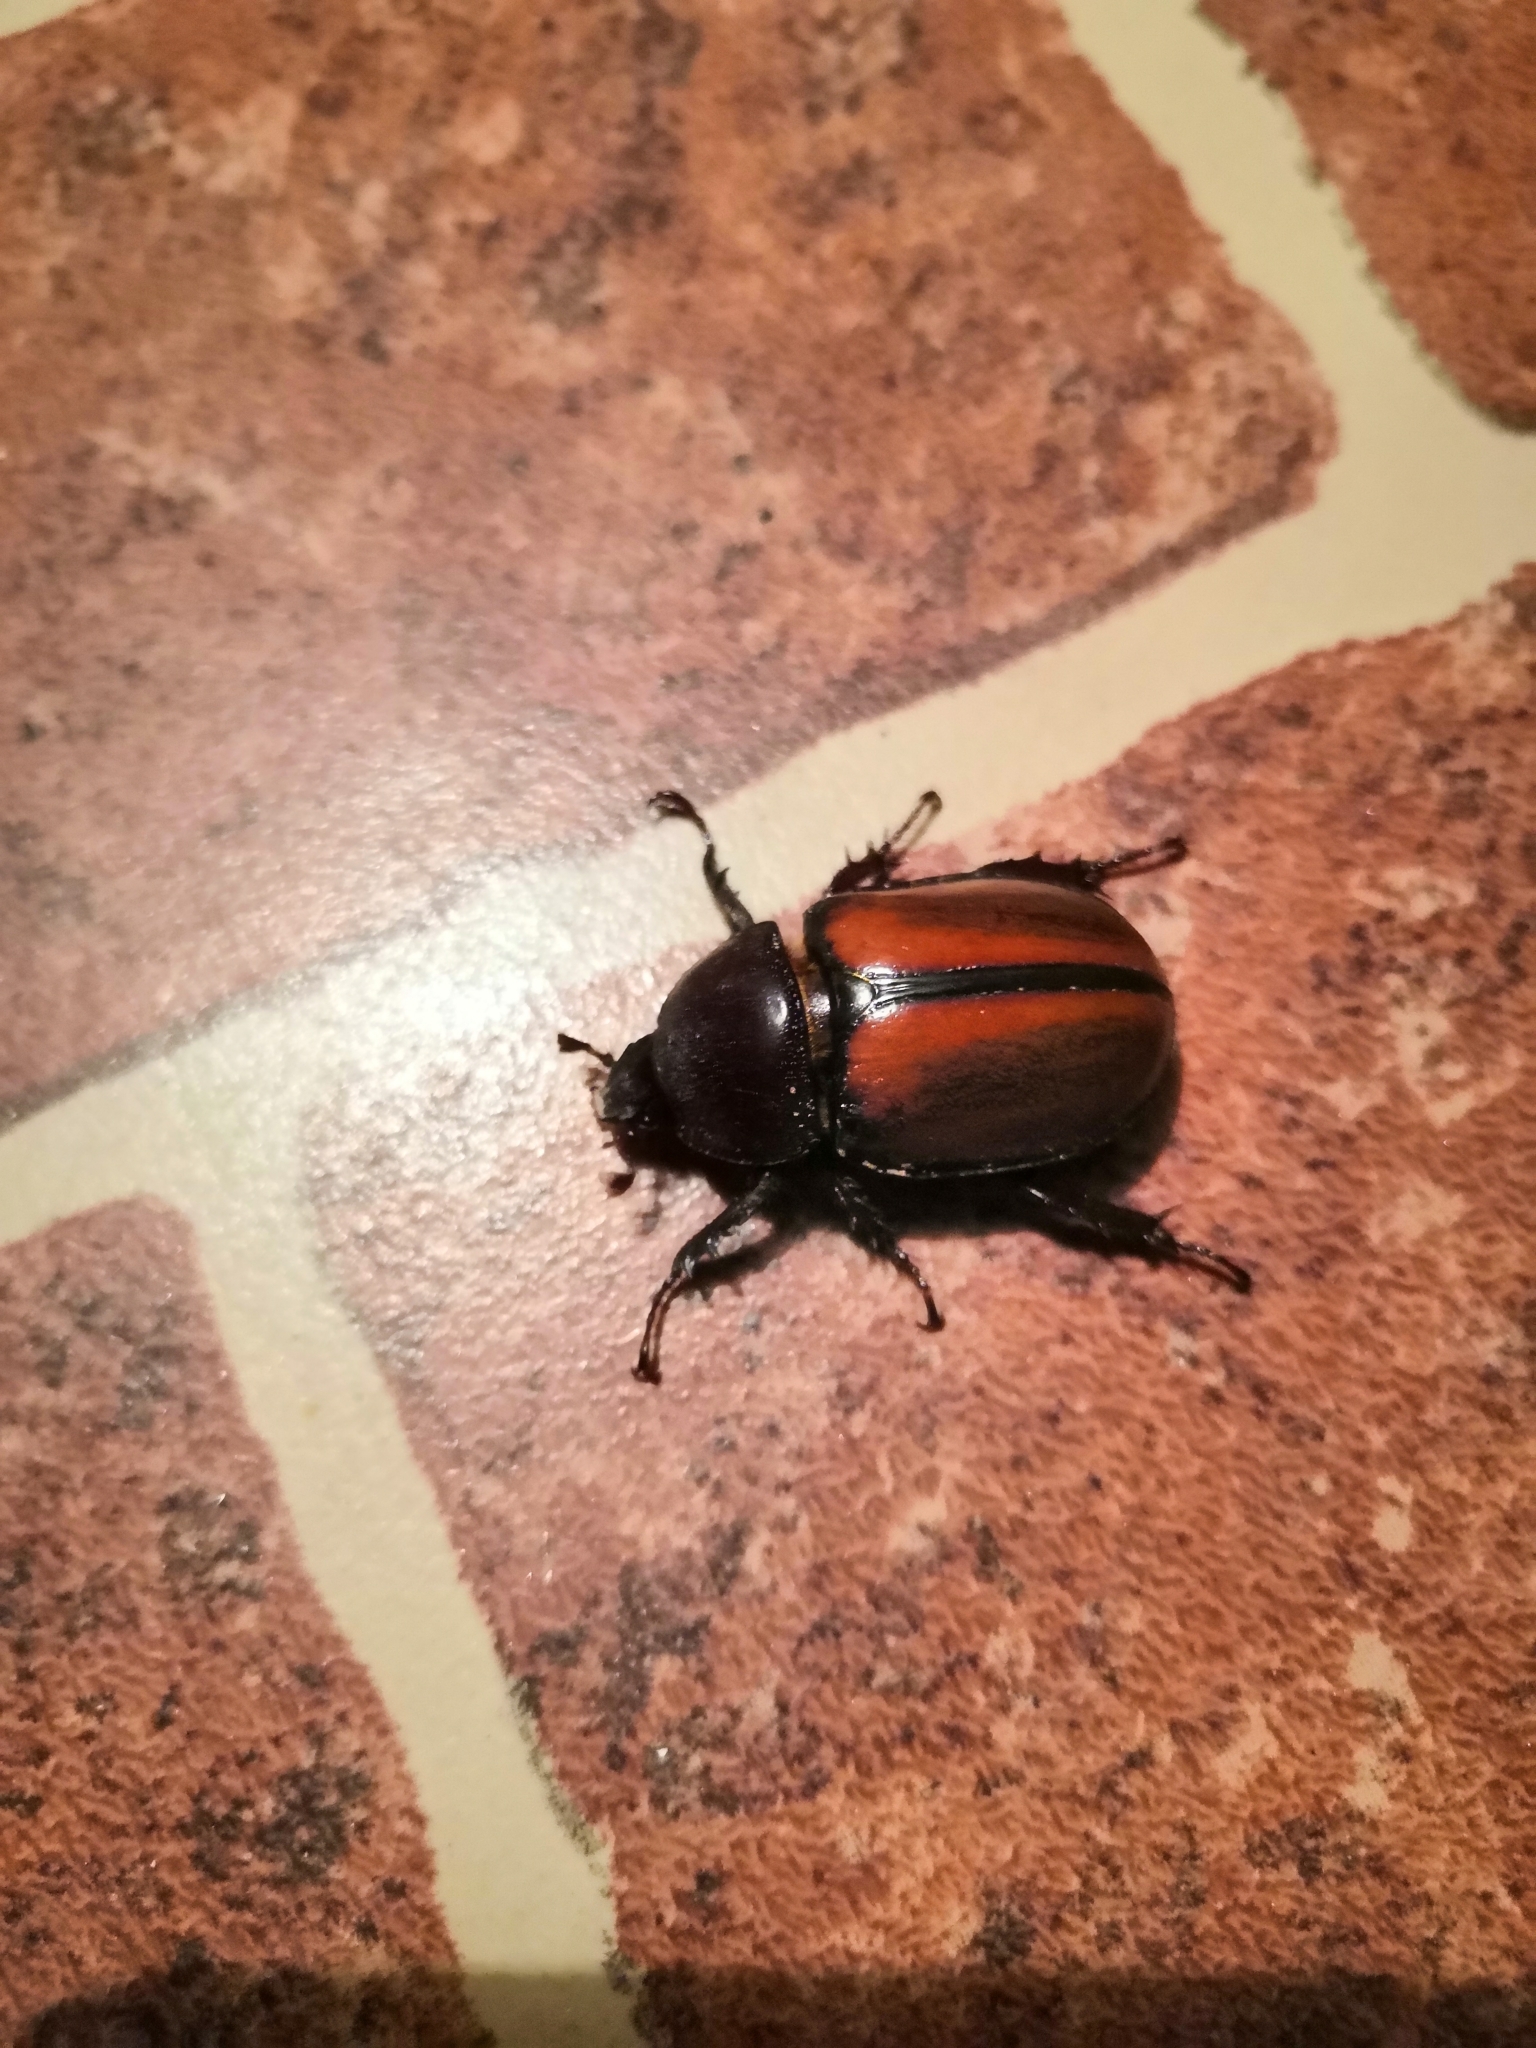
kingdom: Animalia
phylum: Arthropoda
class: Insecta
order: Coleoptera
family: Scarabaeidae
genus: Golofa
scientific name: Golofa pusilla
